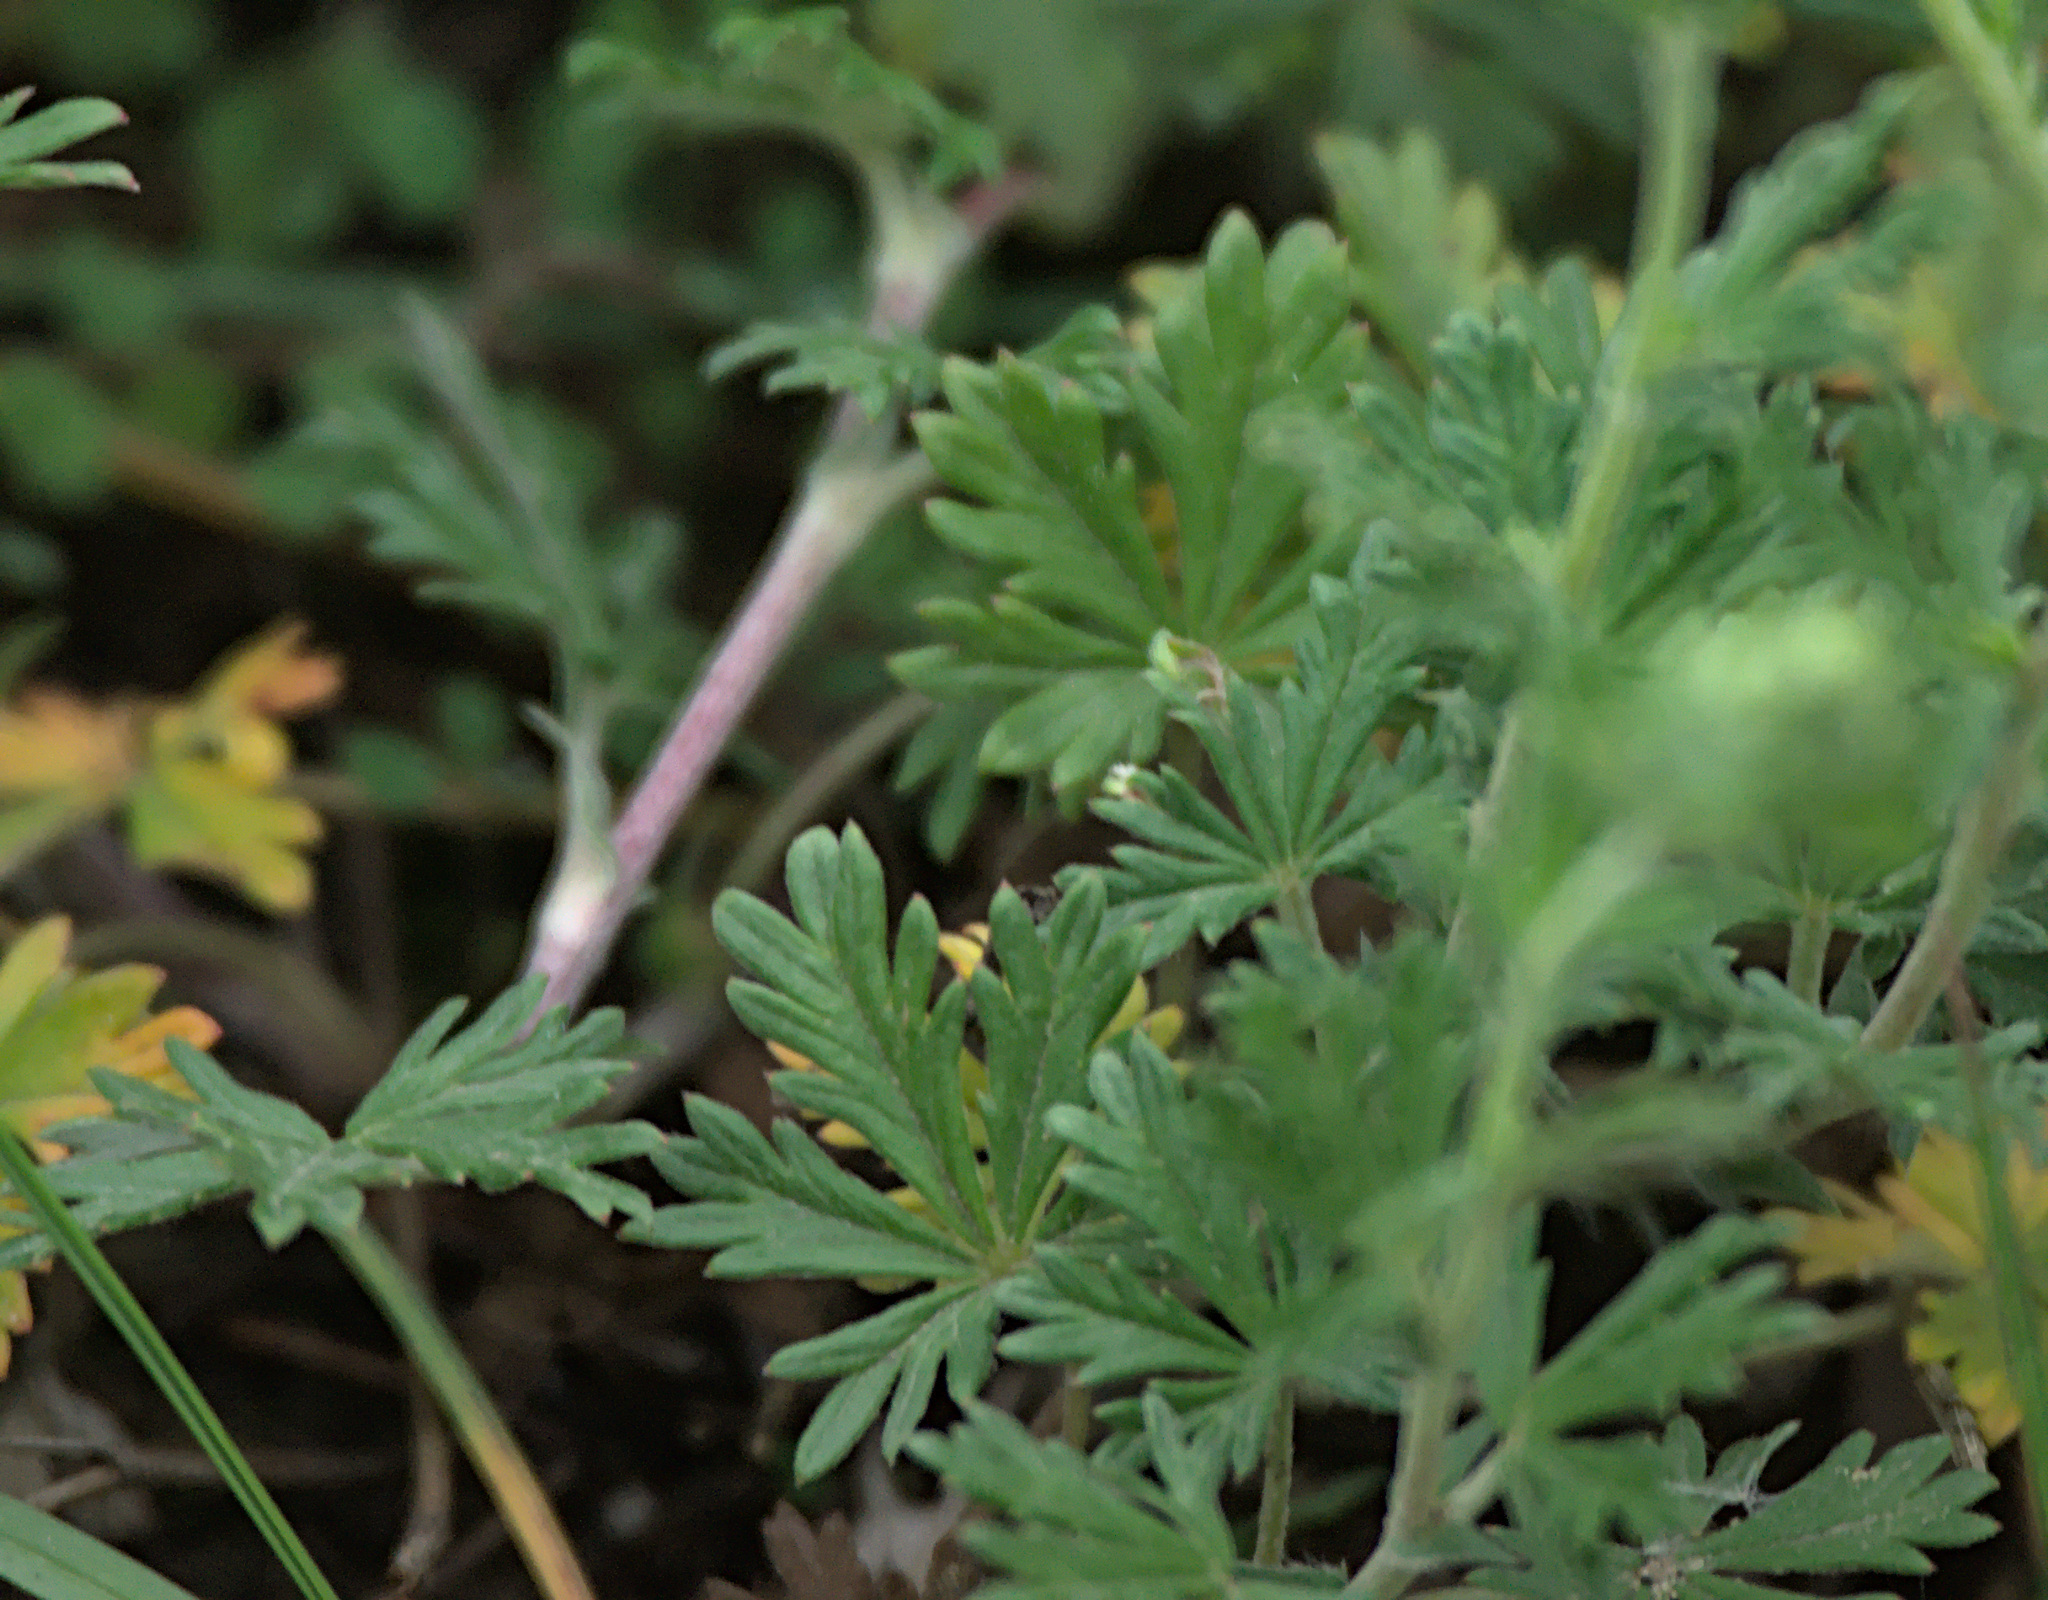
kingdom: Plantae
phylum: Tracheophyta
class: Magnoliopsida
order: Rosales
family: Rosaceae
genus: Potentilla
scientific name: Potentilla argentea
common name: Hoary cinquefoil
